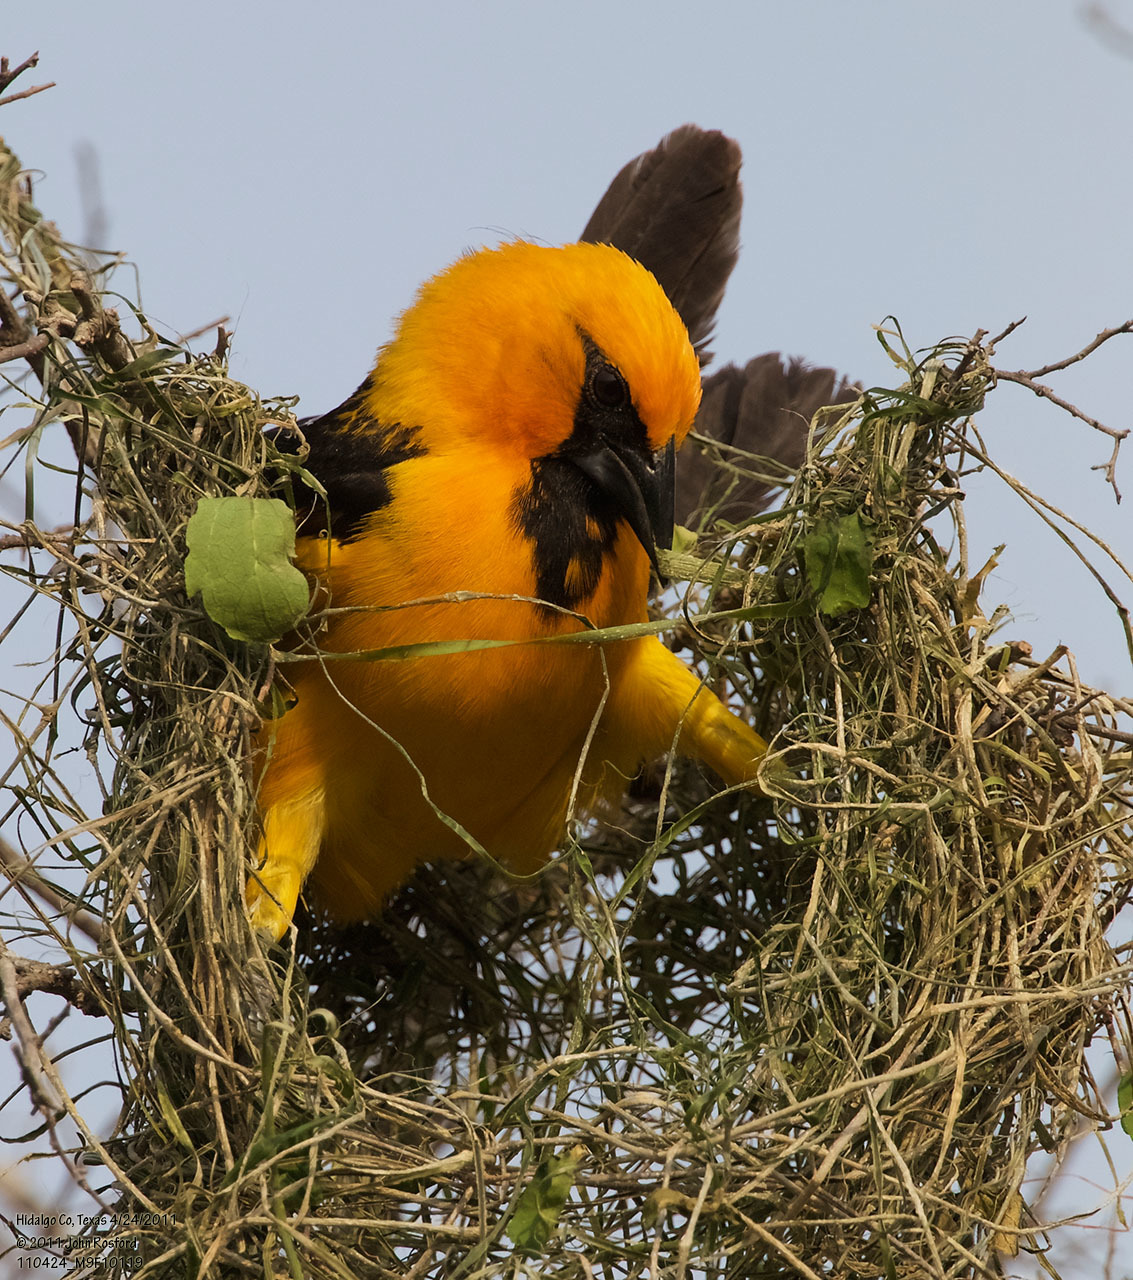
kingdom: Animalia
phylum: Chordata
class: Aves
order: Passeriformes
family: Icteridae
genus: Icterus
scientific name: Icterus gularis
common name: Altamira oriole
